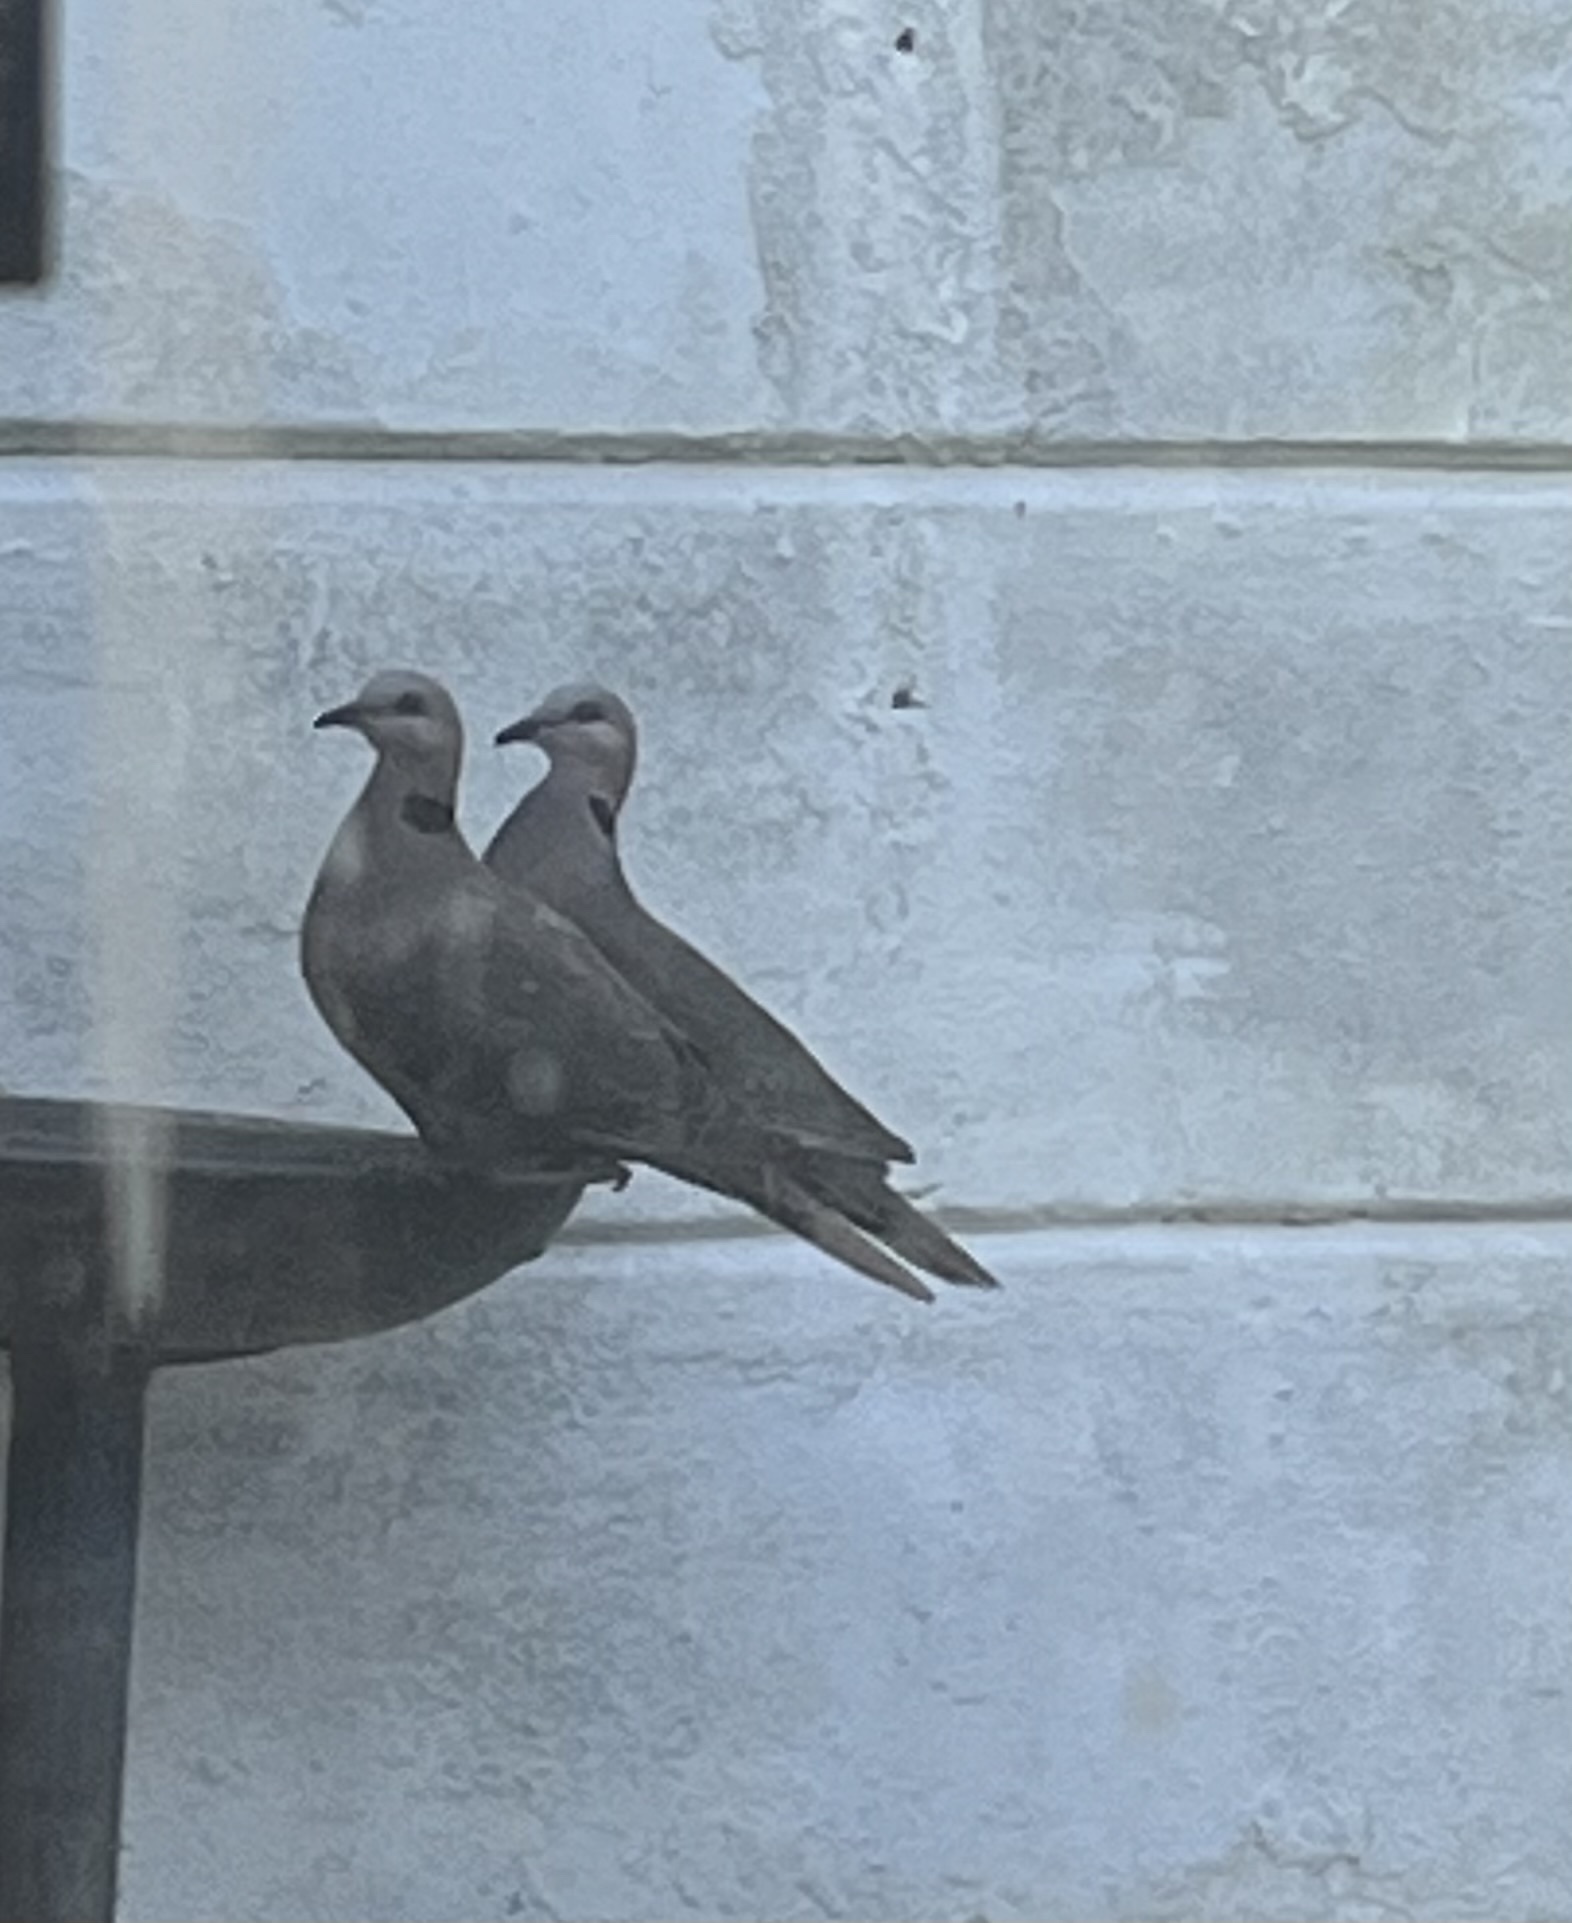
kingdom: Animalia
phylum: Chordata
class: Aves
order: Columbiformes
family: Columbidae
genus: Streptopelia
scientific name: Streptopelia semitorquata
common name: Red-eyed dove
